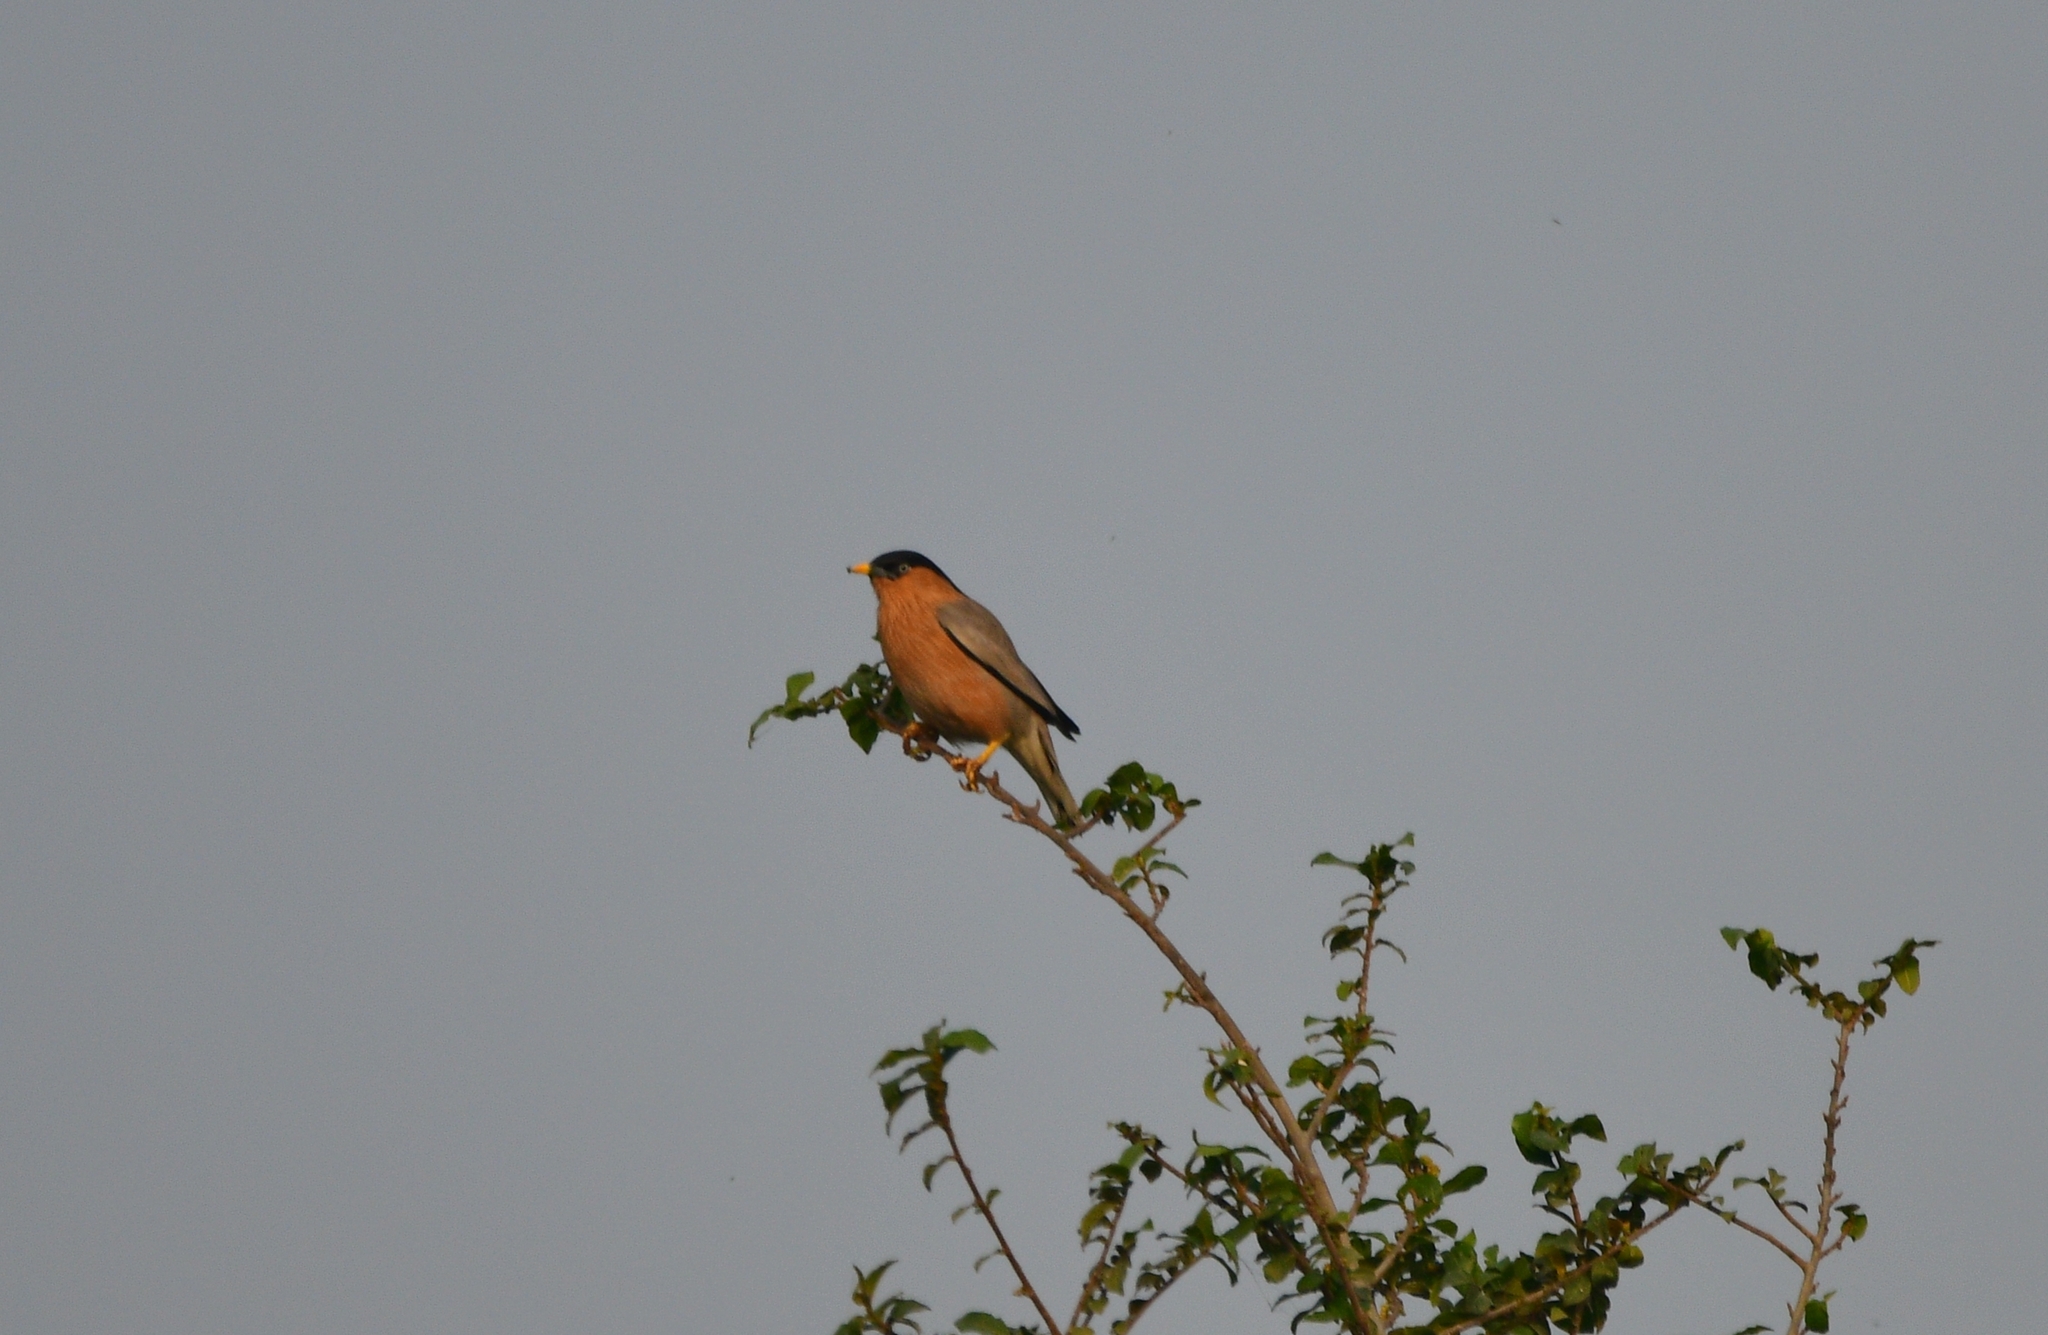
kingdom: Animalia
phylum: Chordata
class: Aves
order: Passeriformes
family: Sturnidae
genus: Sturnia
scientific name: Sturnia pagodarum
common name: Brahminy starling
